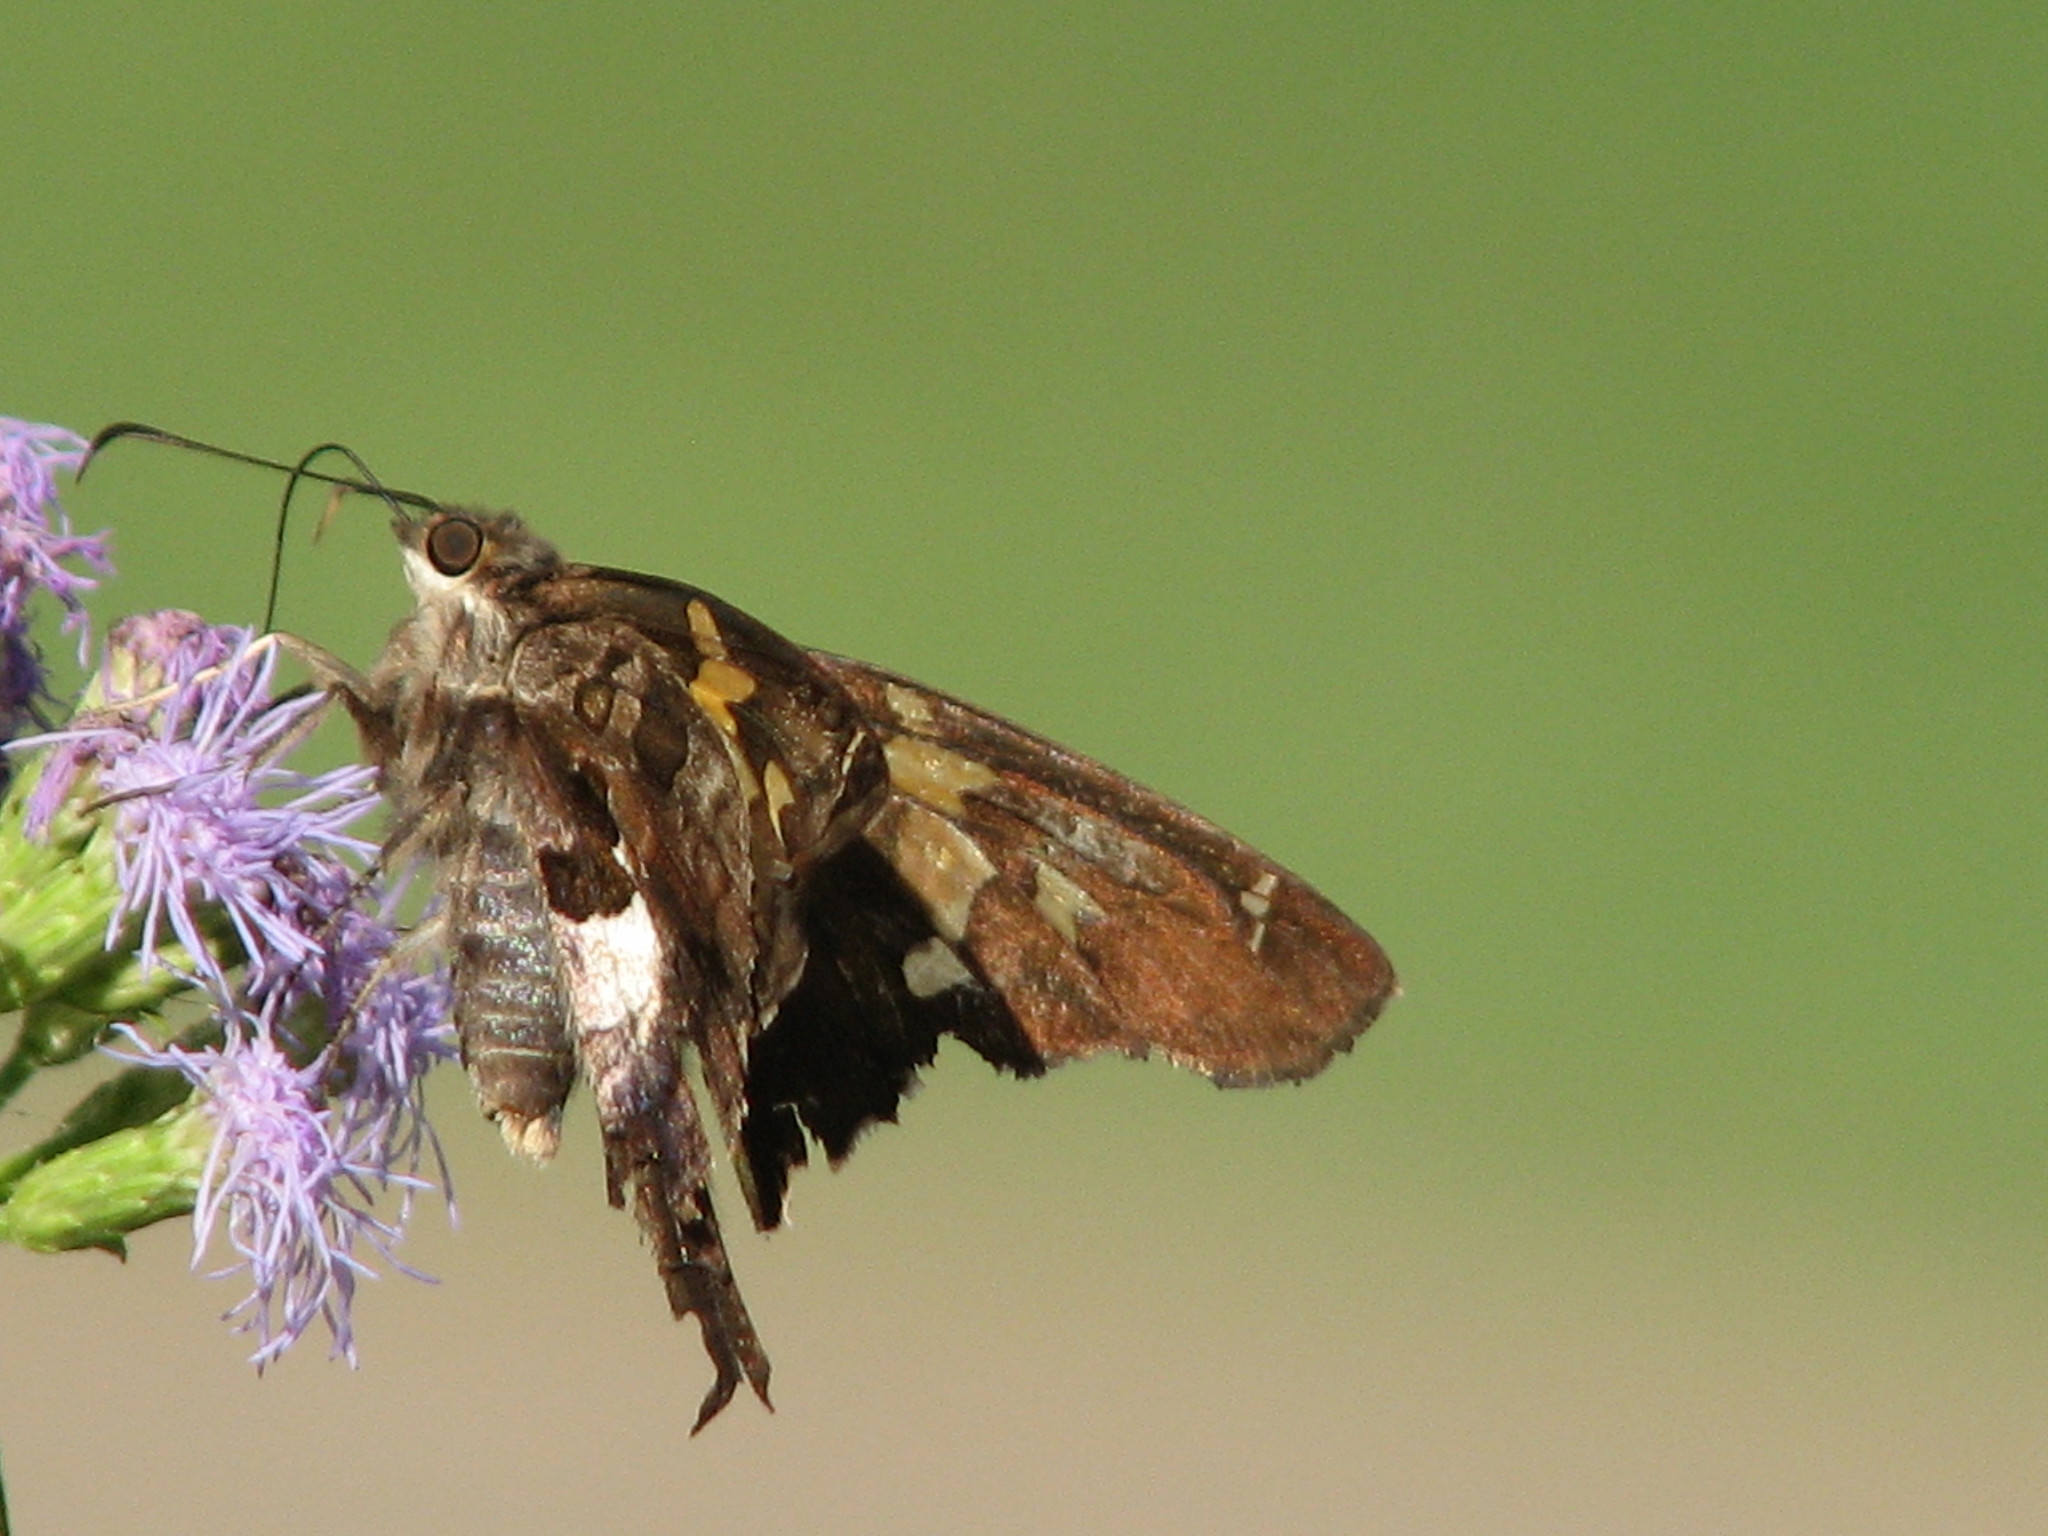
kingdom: Animalia
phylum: Arthropoda
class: Insecta
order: Lepidoptera
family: Hesperiidae
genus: Chioides
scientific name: Chioides zilpa
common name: Zilpa longtail
